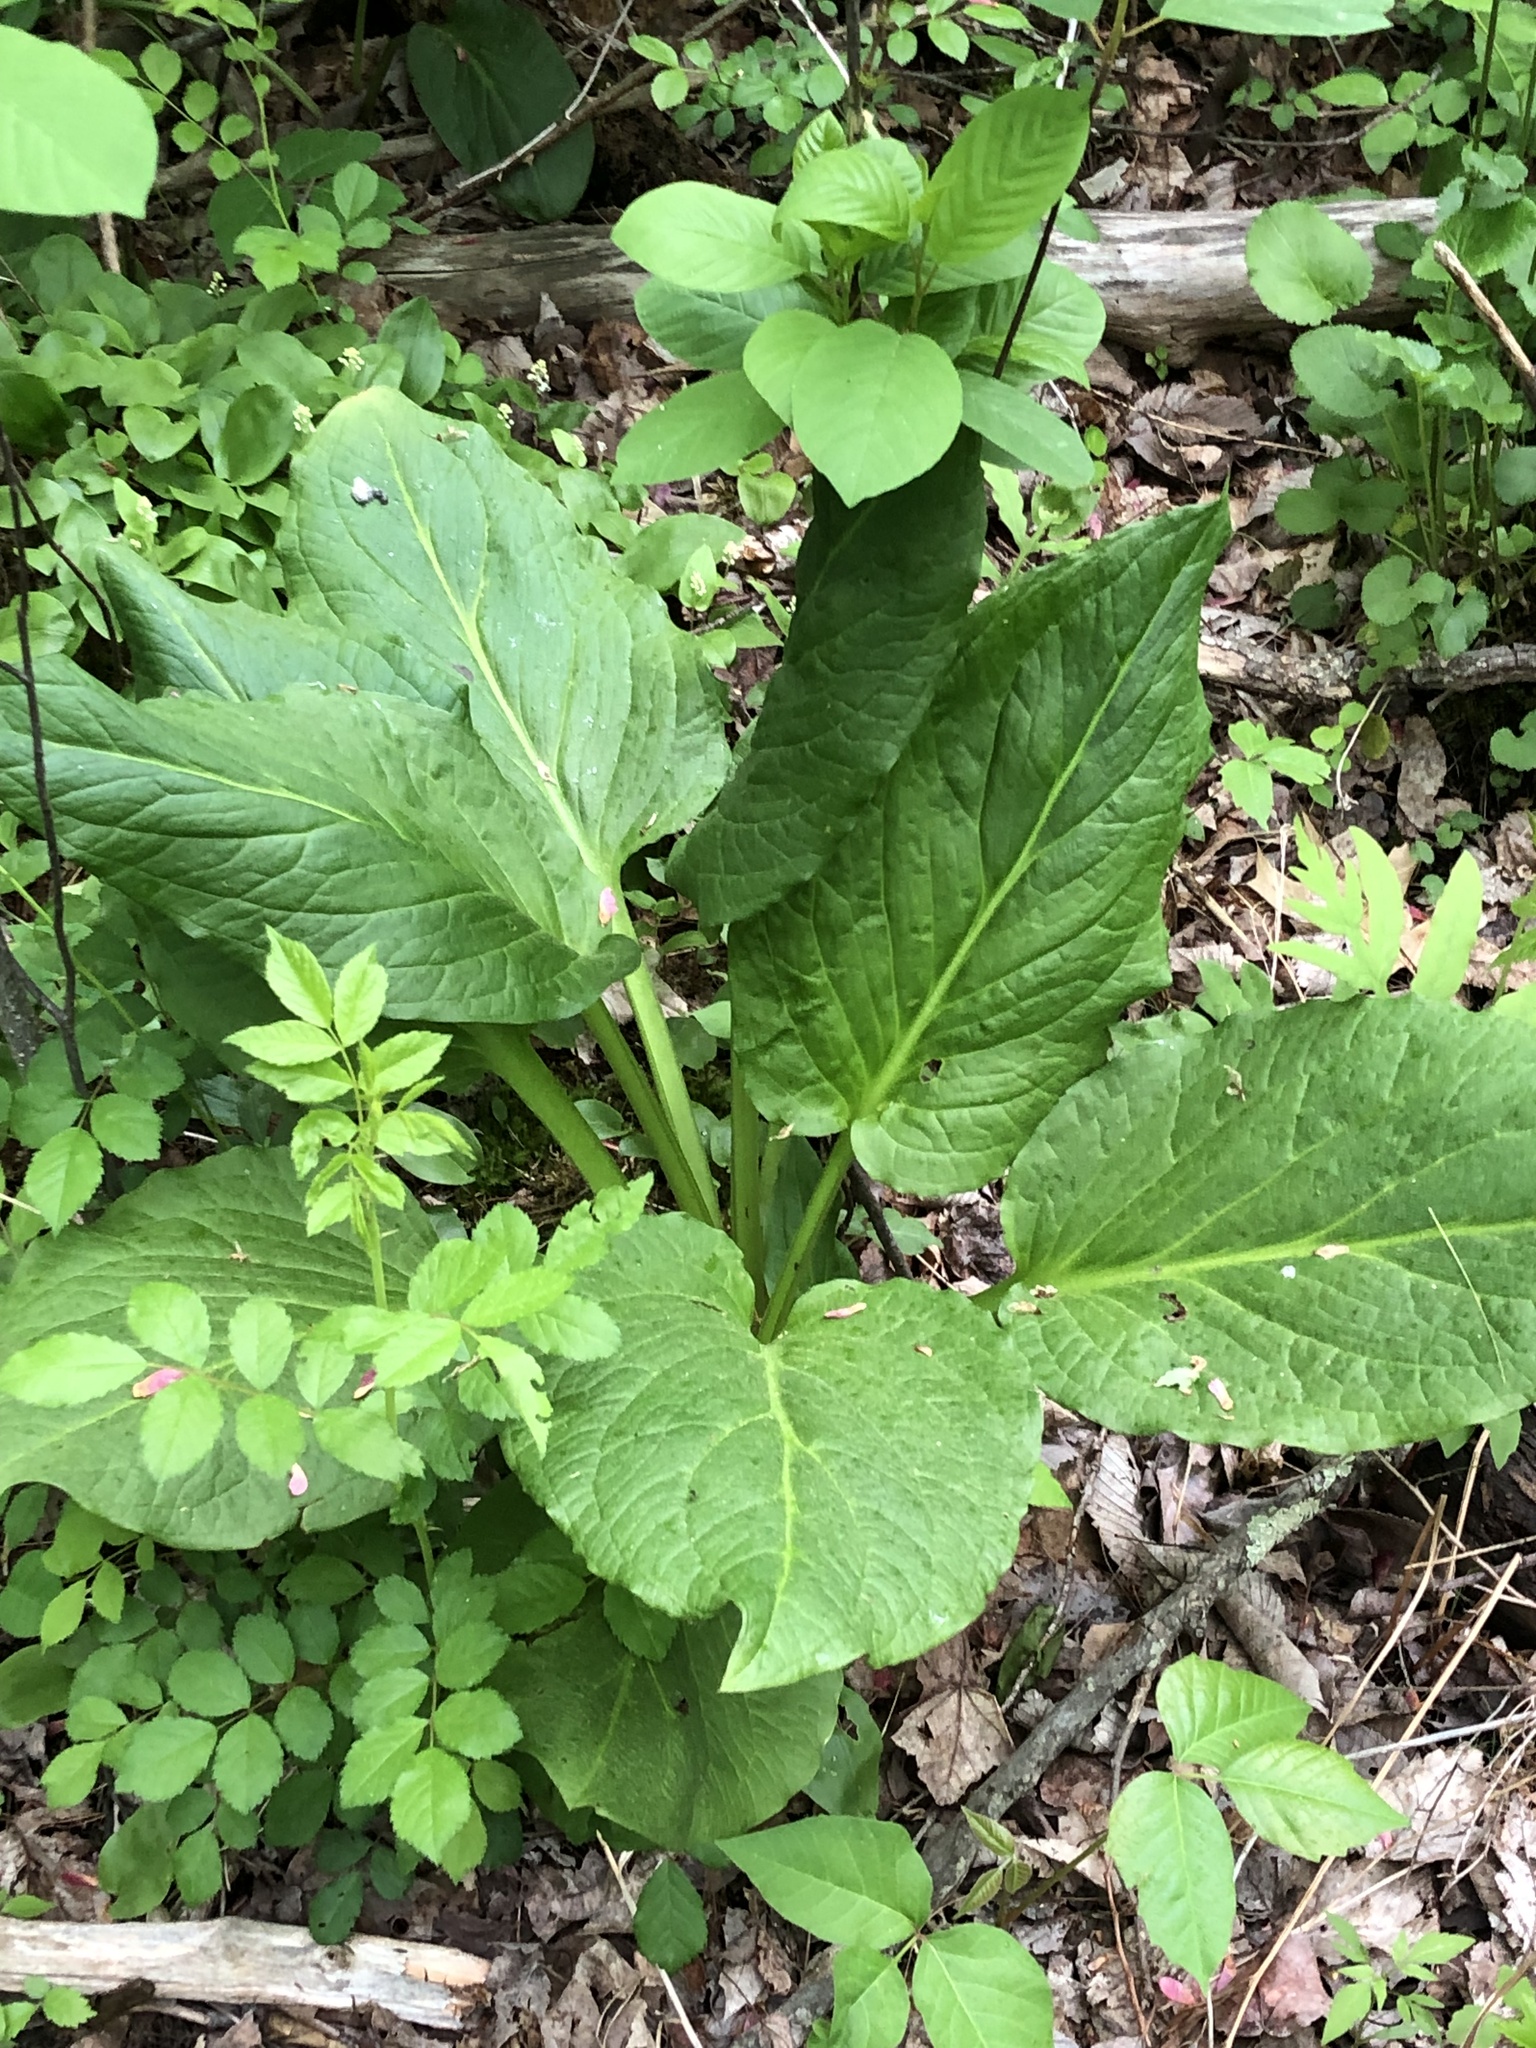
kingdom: Plantae
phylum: Tracheophyta
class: Liliopsida
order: Alismatales
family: Araceae
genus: Symplocarpus
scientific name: Symplocarpus foetidus
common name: Eastern skunk cabbage
